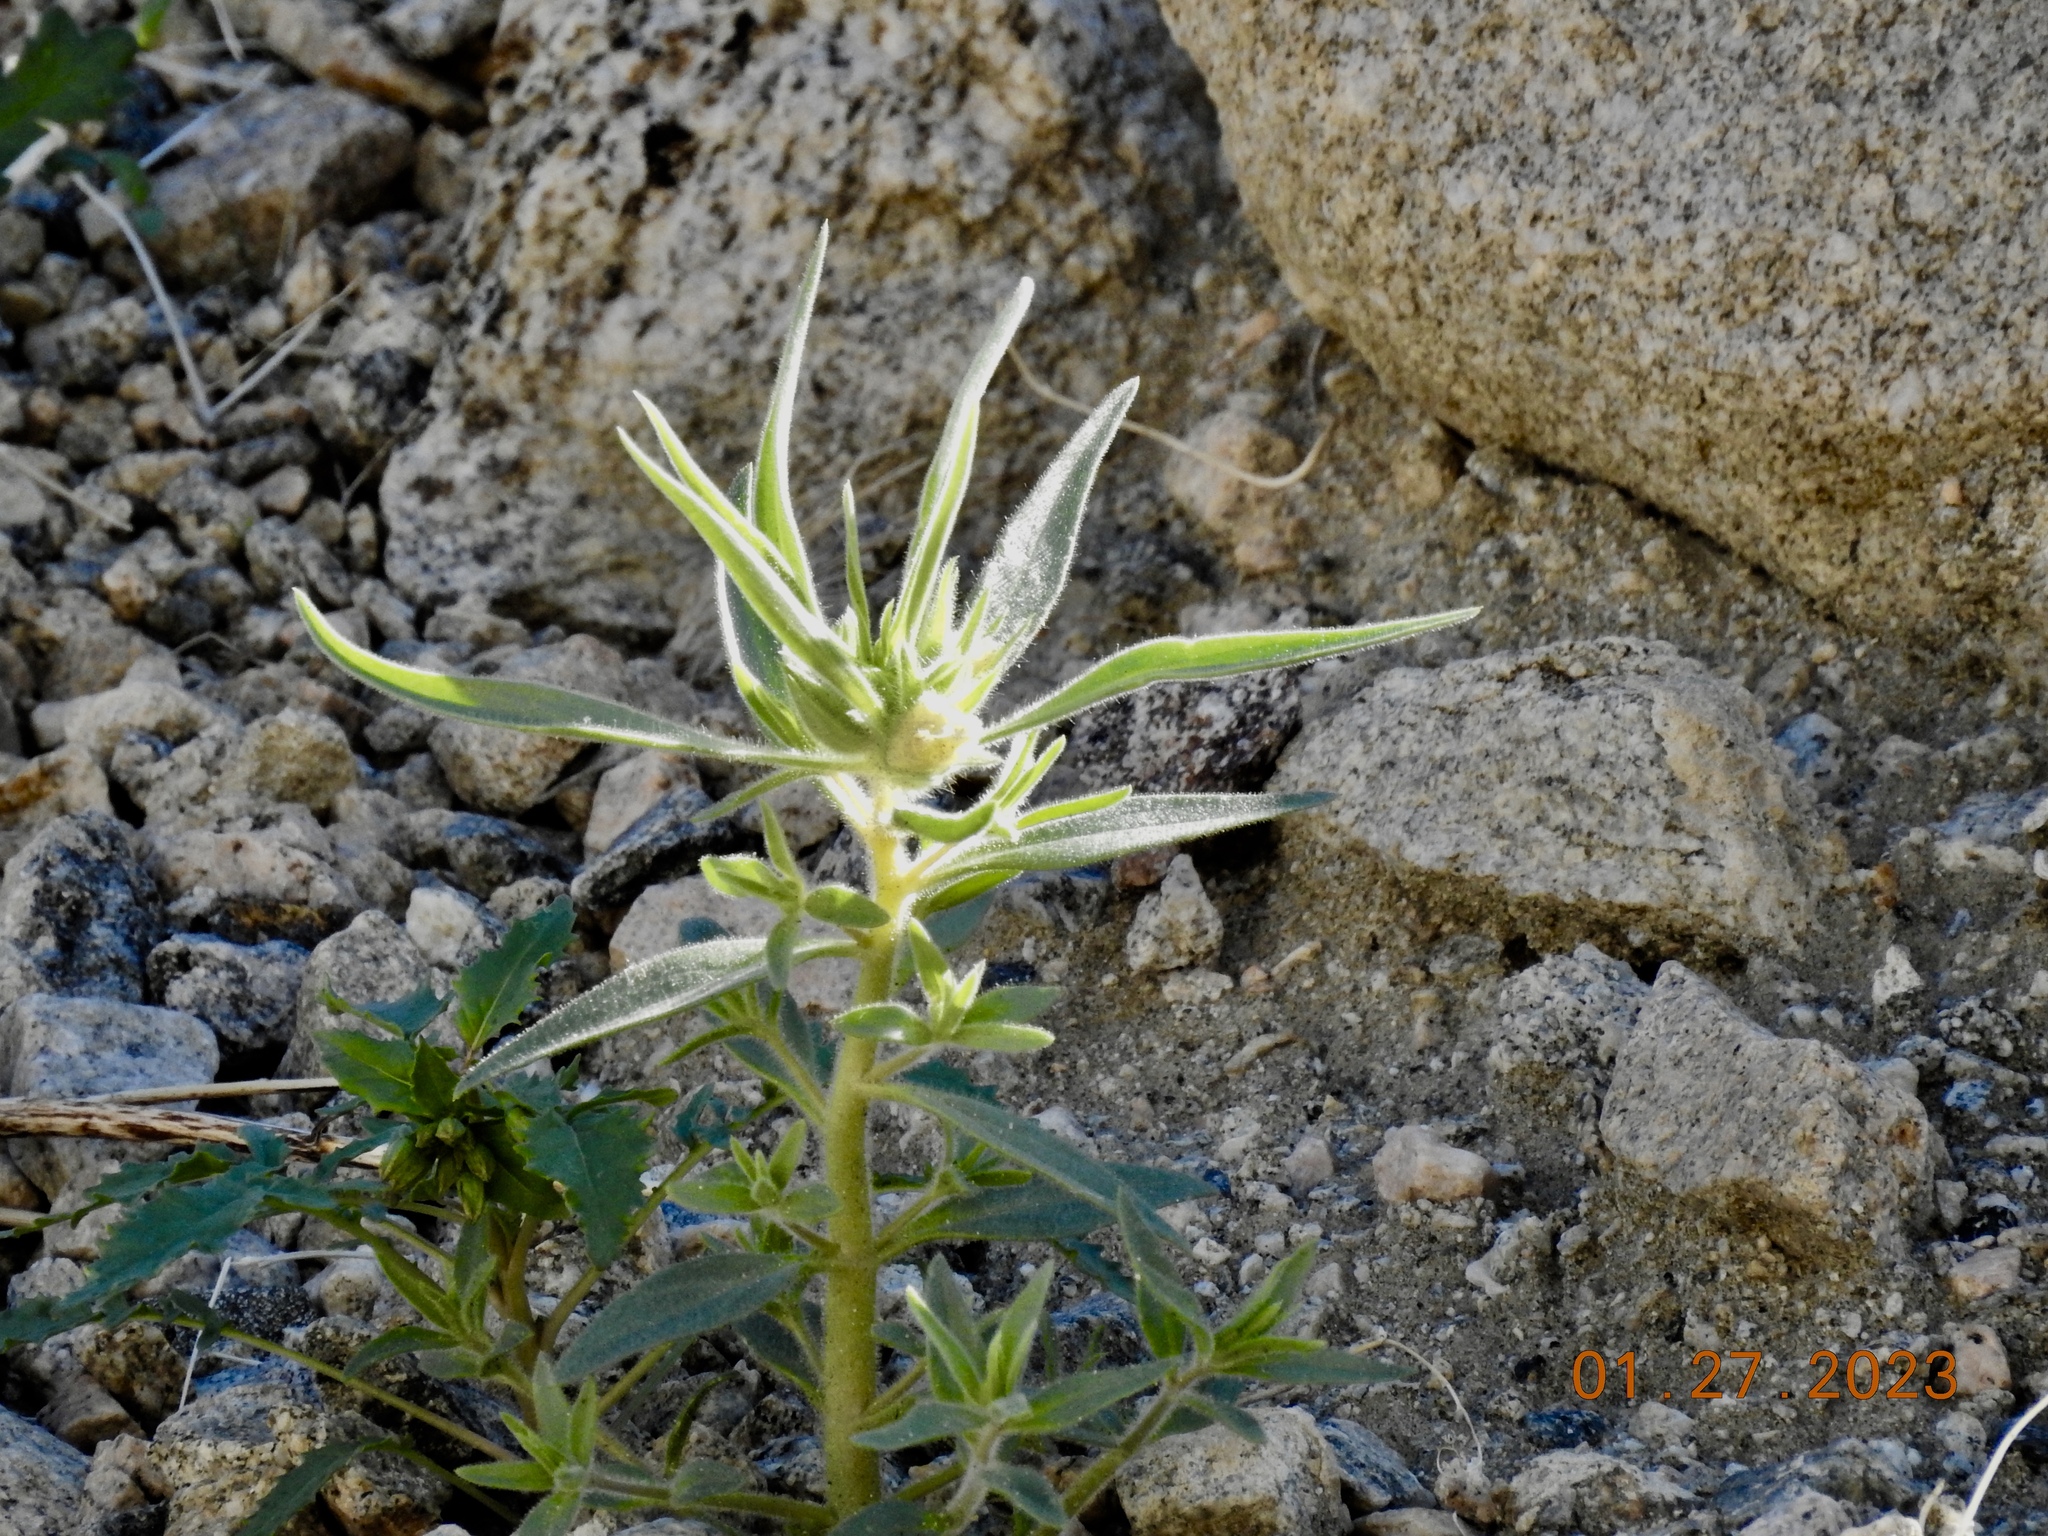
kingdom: Plantae
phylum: Tracheophyta
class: Magnoliopsida
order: Lamiales
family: Plantaginaceae
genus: Mohavea
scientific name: Mohavea confertiflora
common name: Ghost flower
